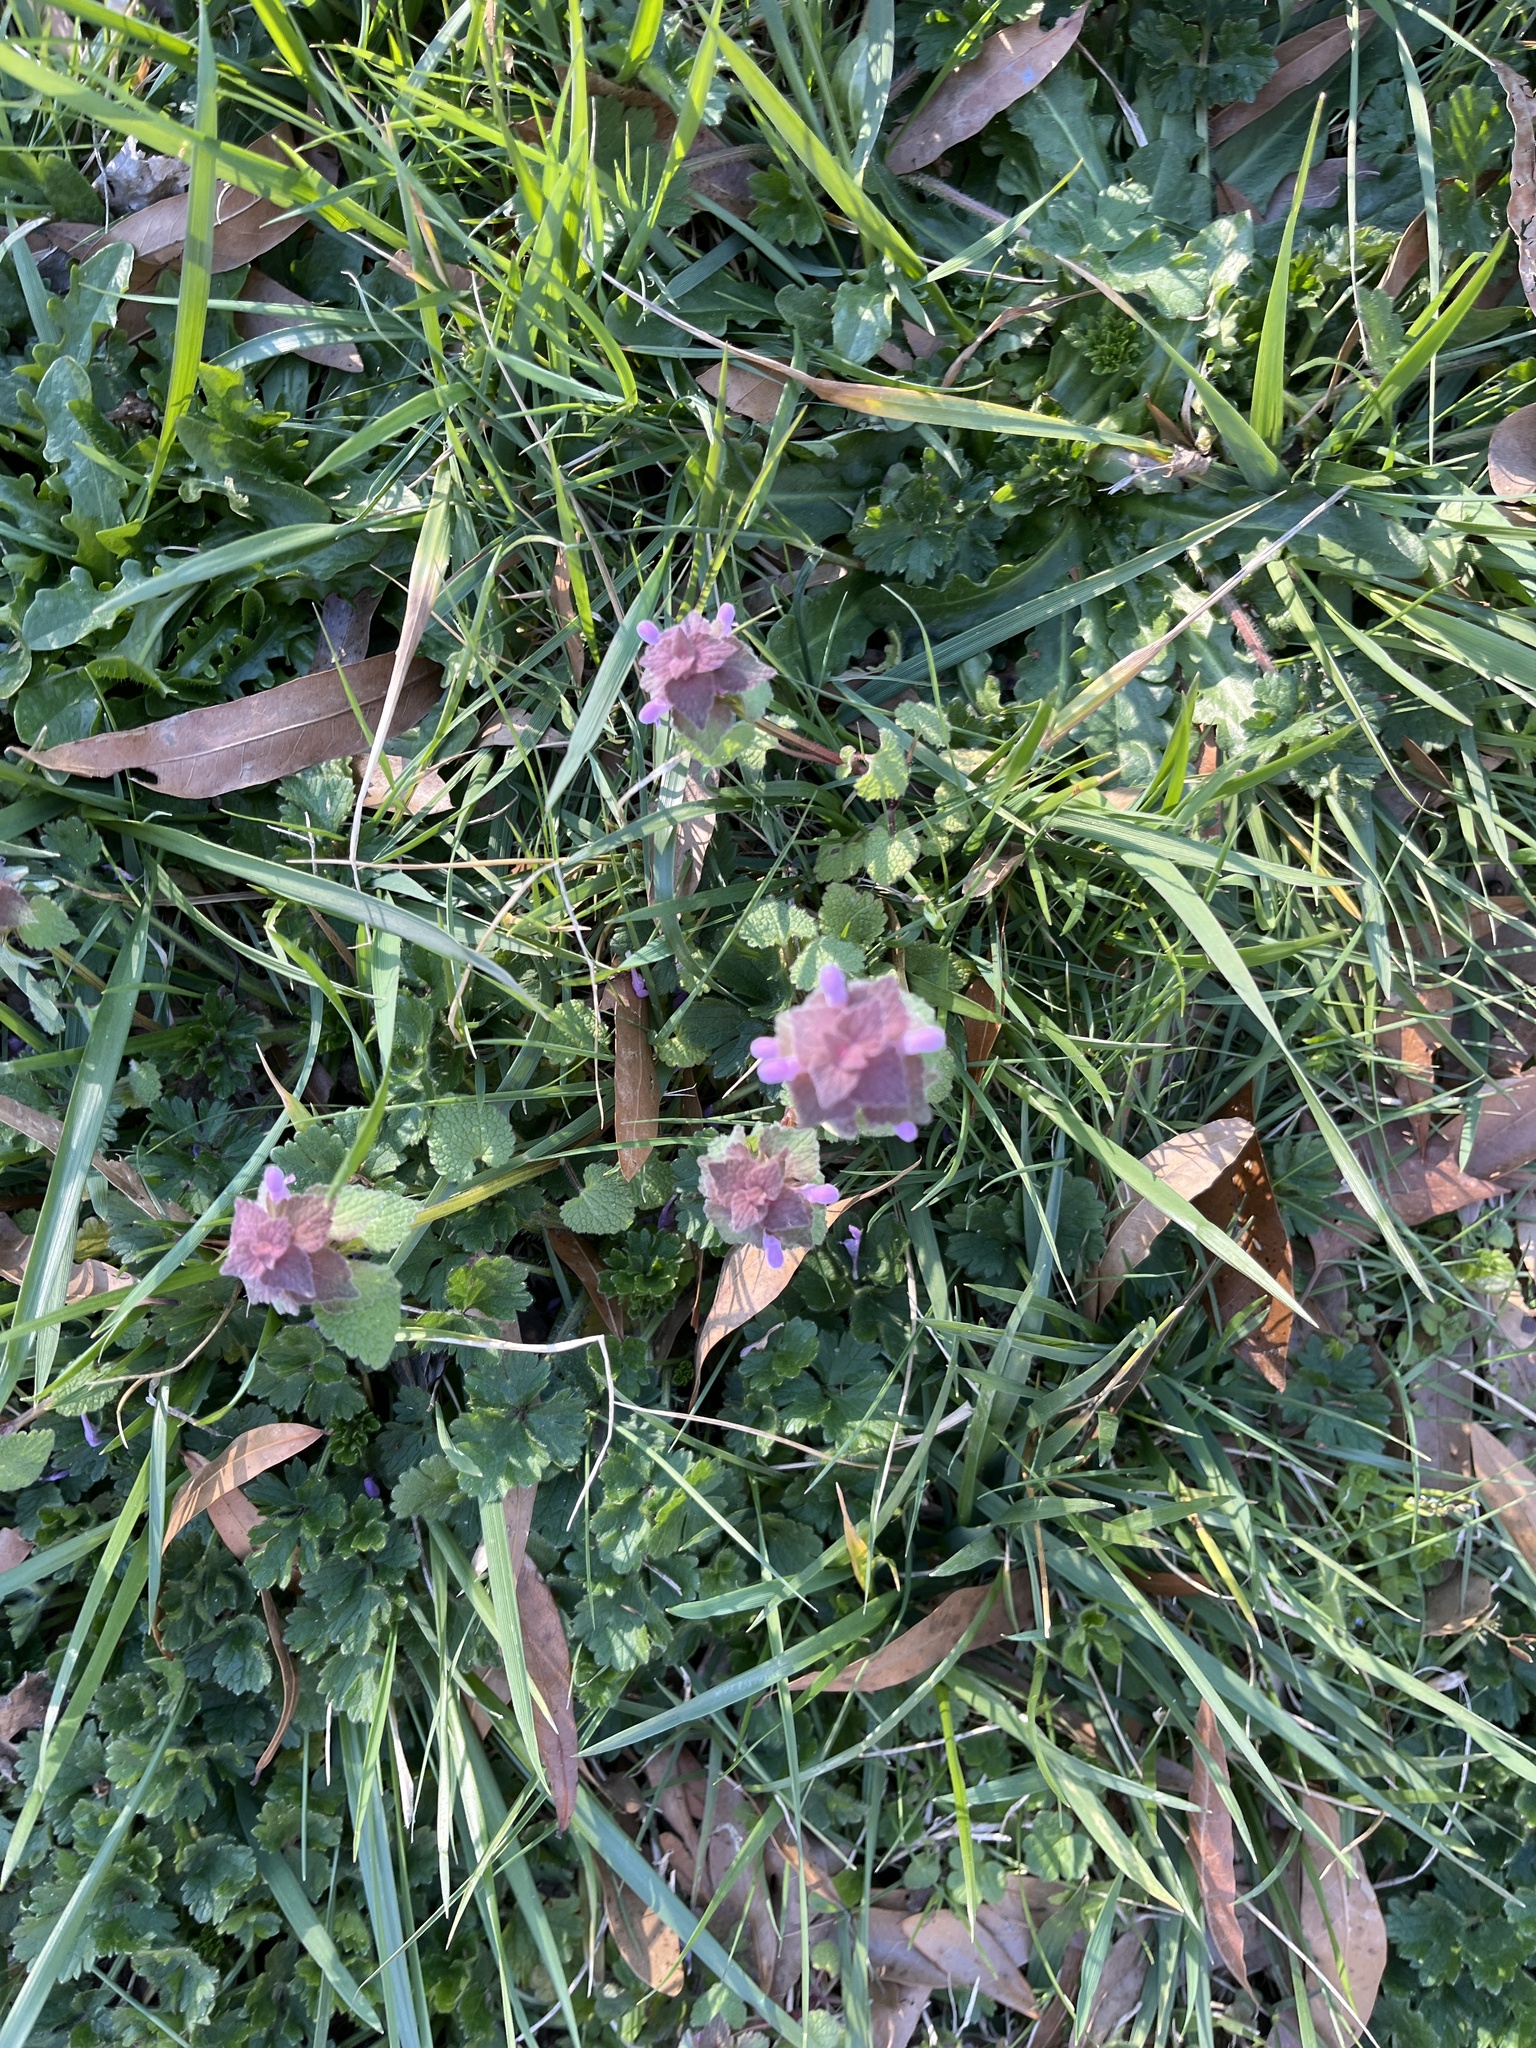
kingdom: Plantae
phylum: Tracheophyta
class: Magnoliopsida
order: Lamiales
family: Lamiaceae
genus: Lamium
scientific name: Lamium purpureum
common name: Red dead-nettle
